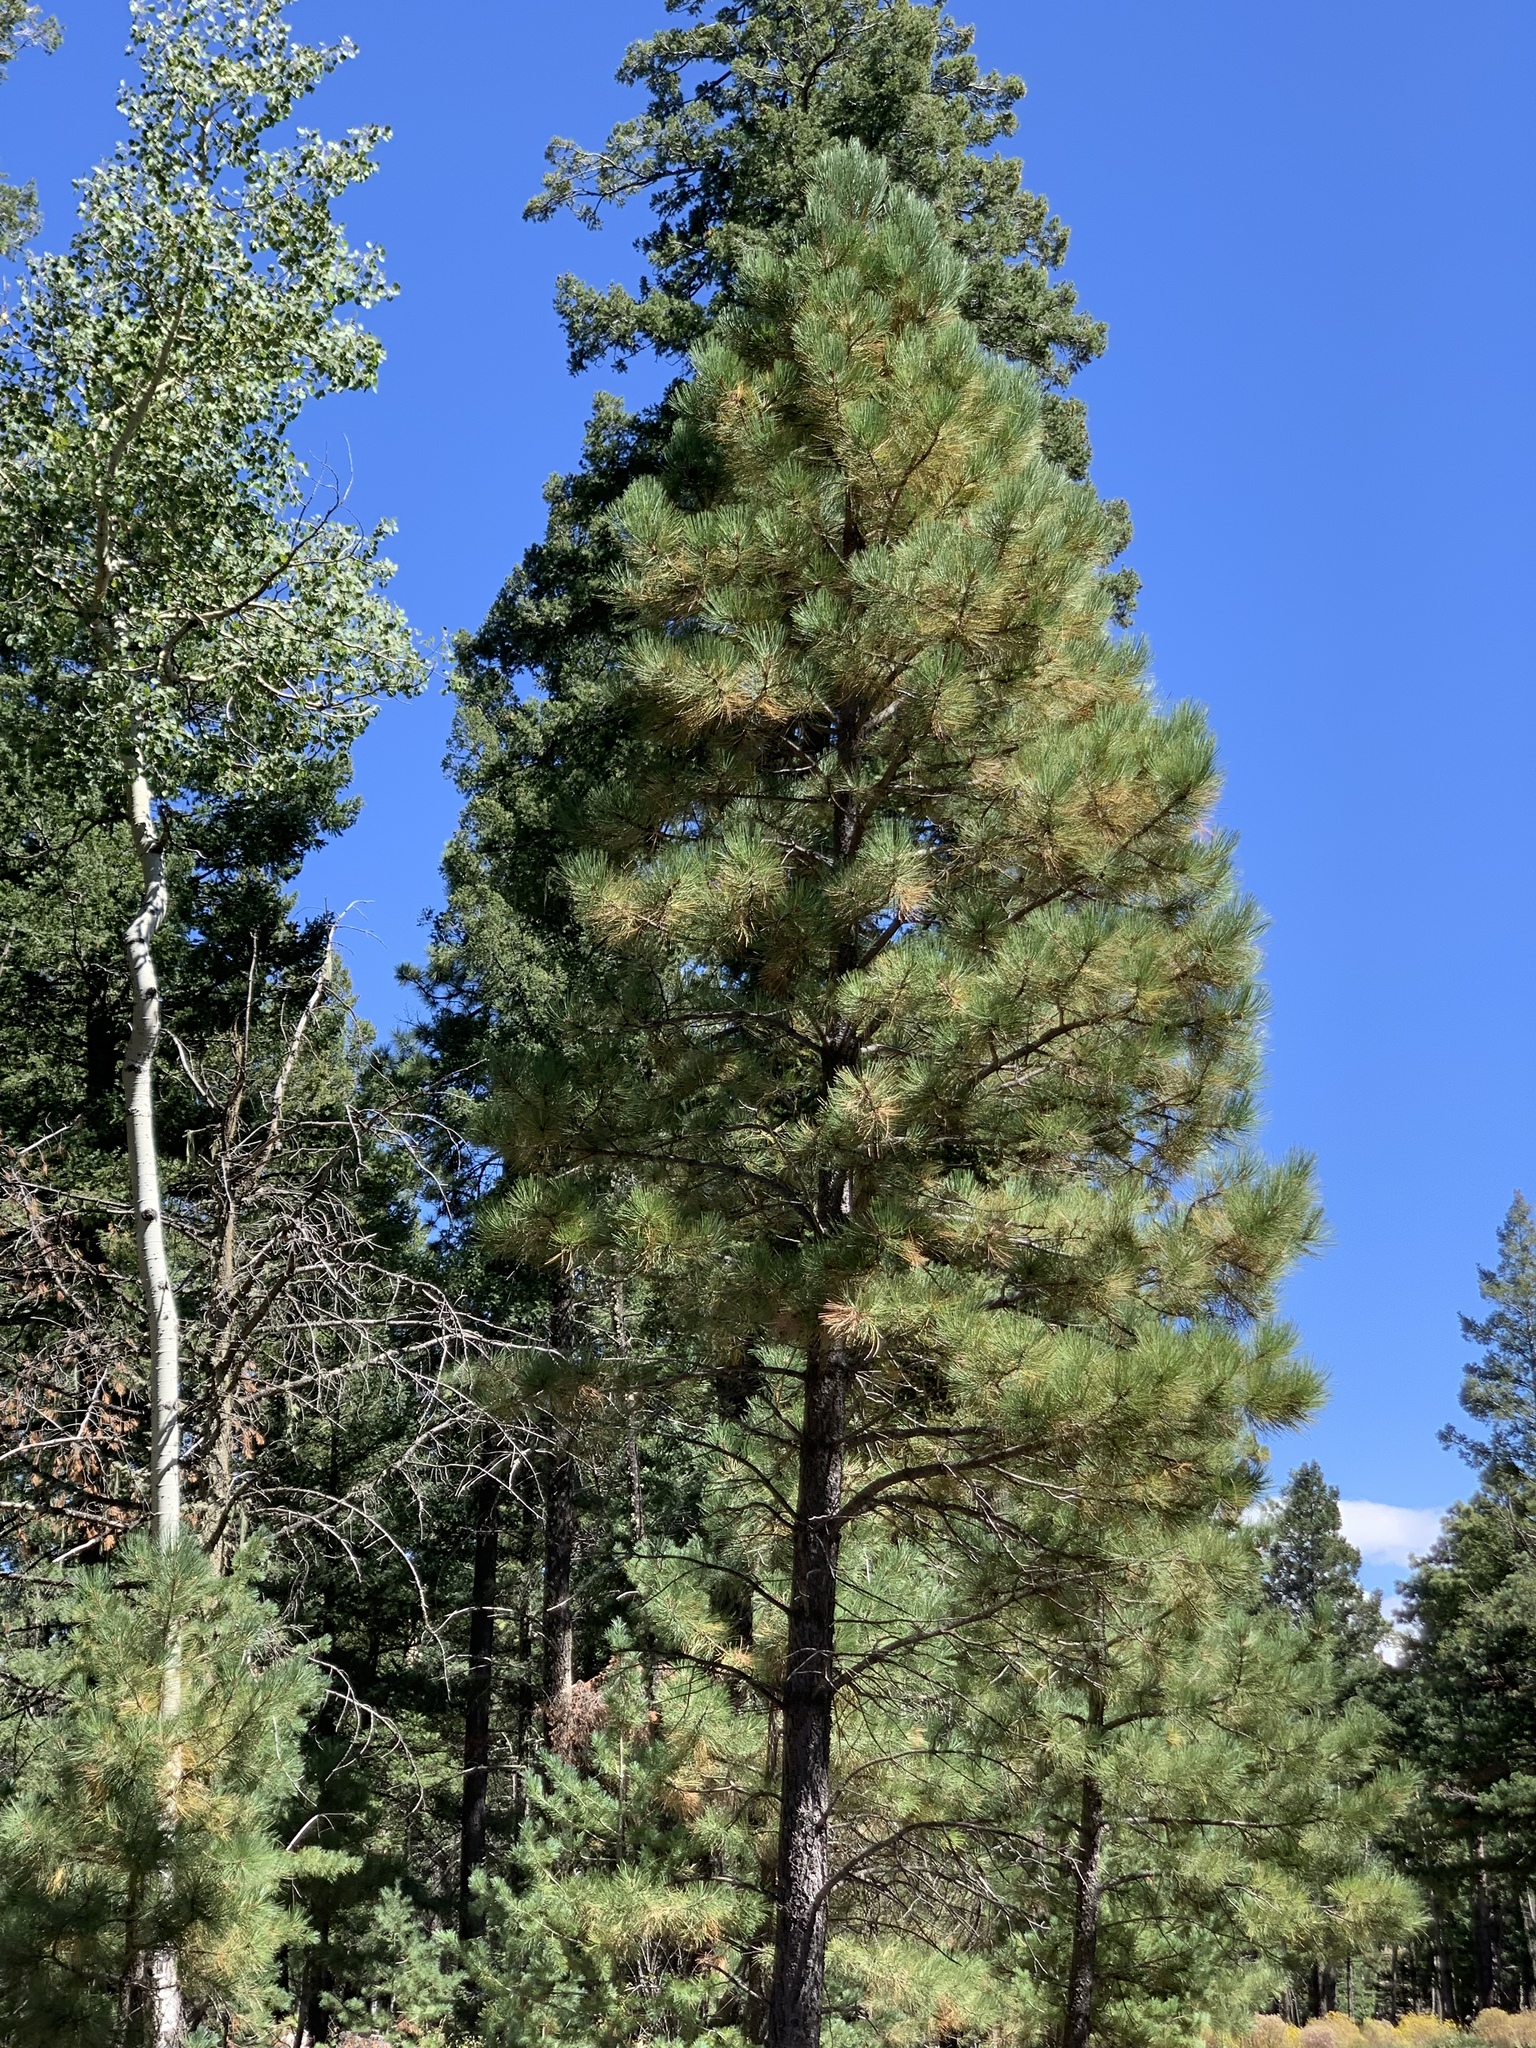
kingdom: Plantae
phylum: Tracheophyta
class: Pinopsida
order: Pinales
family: Pinaceae
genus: Pinus
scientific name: Pinus ponderosa
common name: Western yellow-pine
